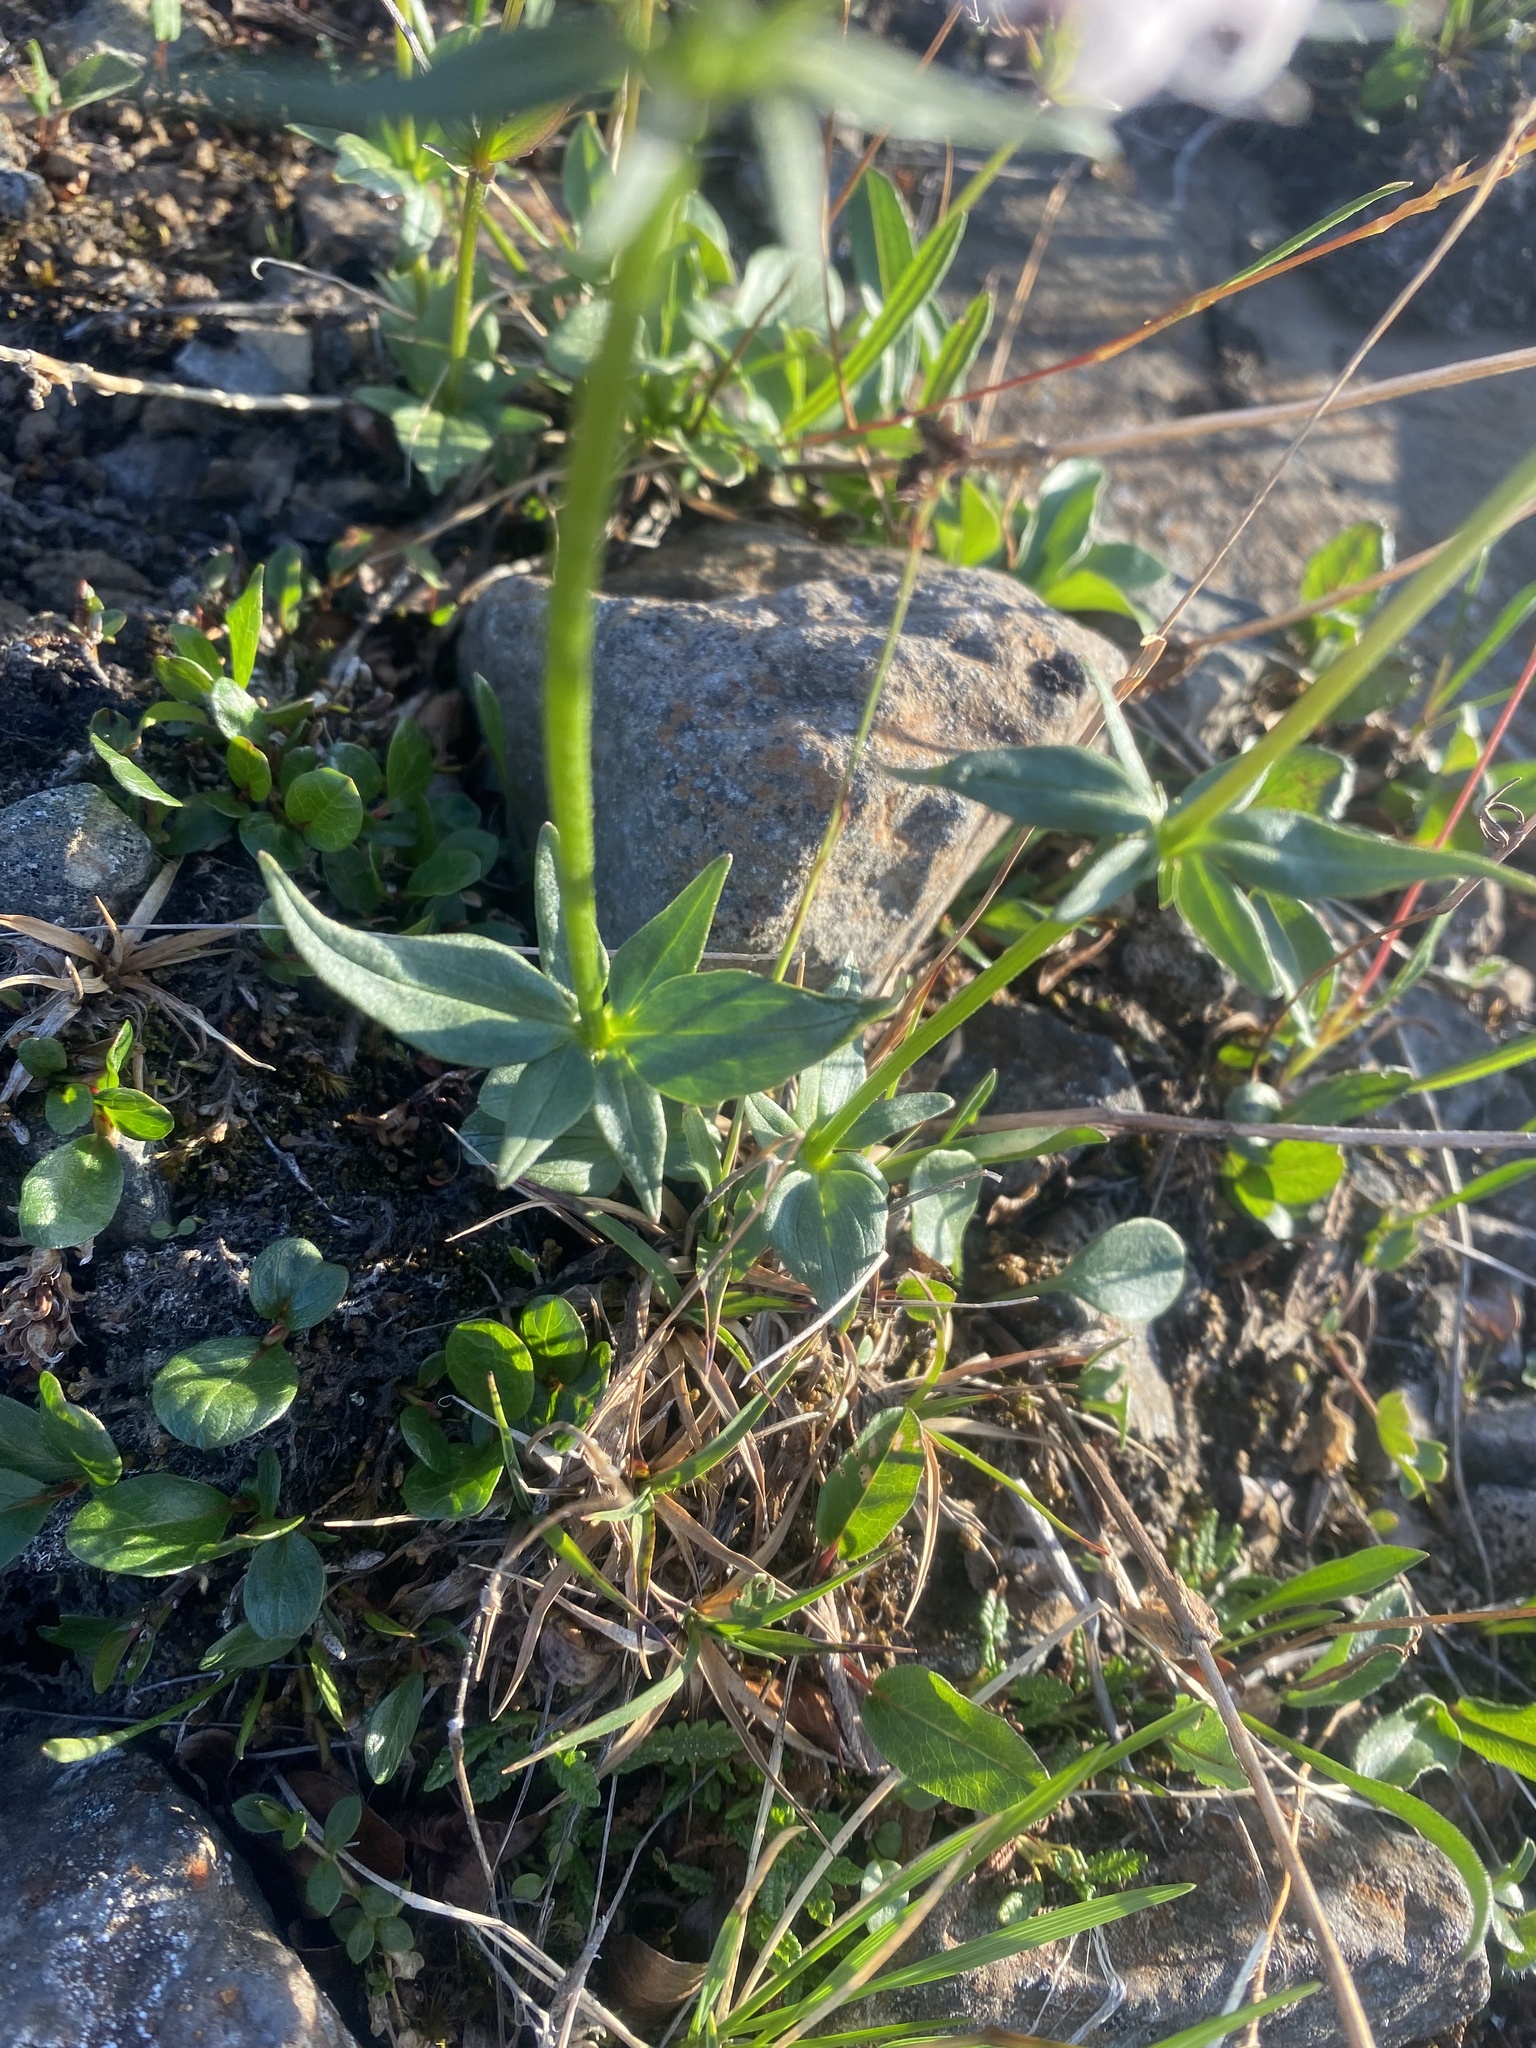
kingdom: Plantae
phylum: Tracheophyta
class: Magnoliopsida
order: Dipsacales
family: Caprifoliaceae
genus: Valeriana
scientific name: Valeriana capitata
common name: Capitate valerian
